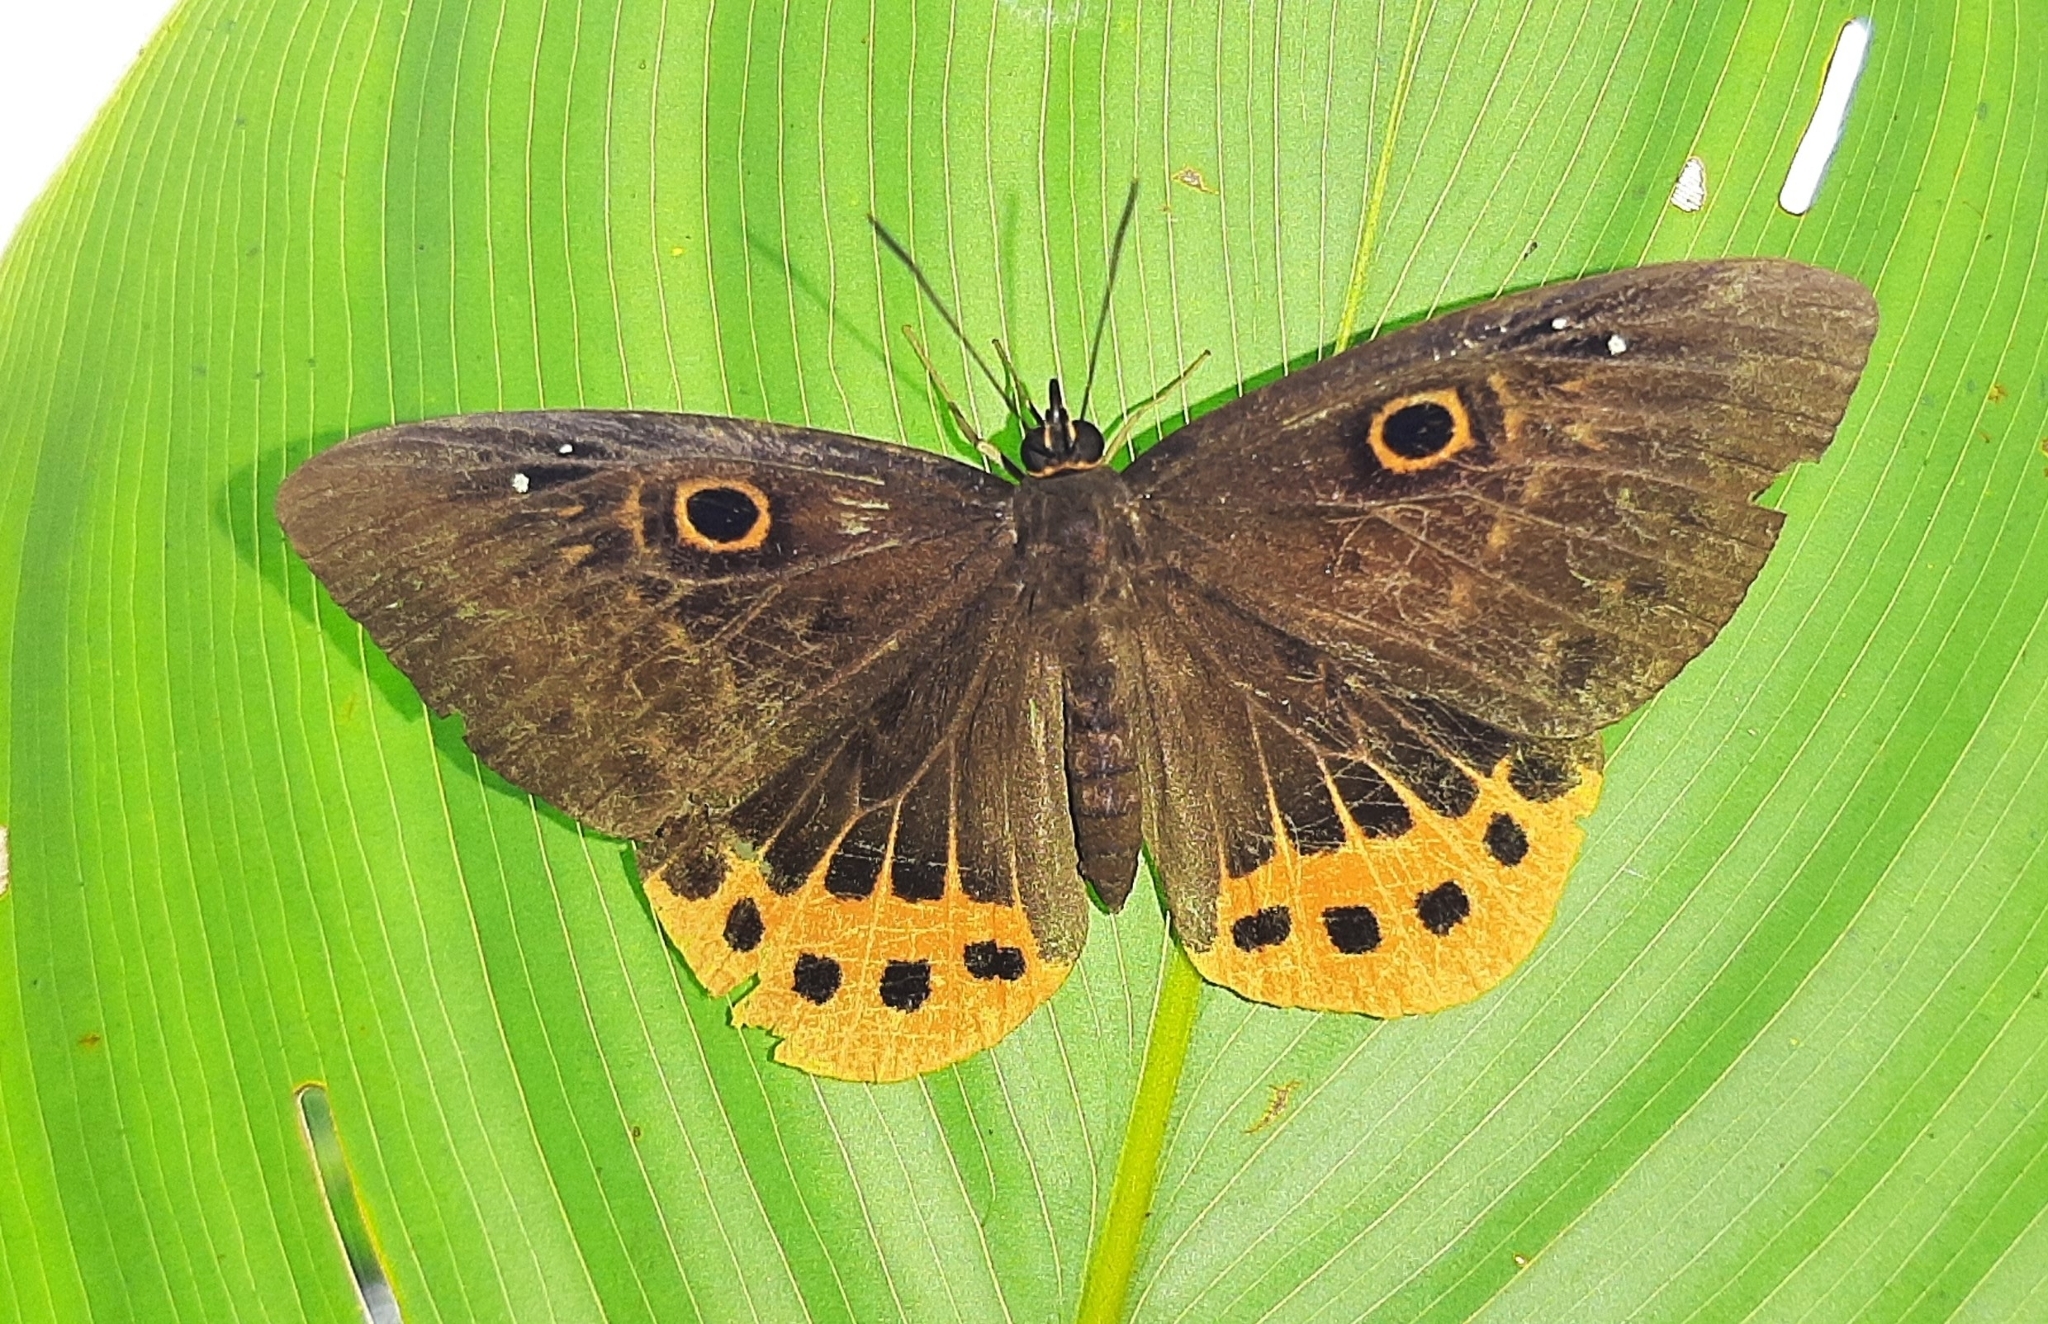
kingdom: Animalia
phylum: Cnidaria
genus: Eurybia
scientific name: Eurybia donna
